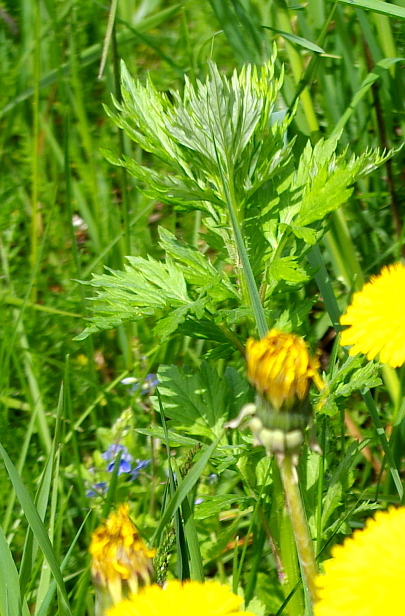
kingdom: Plantae
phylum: Tracheophyta
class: Magnoliopsida
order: Asterales
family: Asteraceae
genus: Artemisia
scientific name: Artemisia vulgaris
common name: Mugwort
